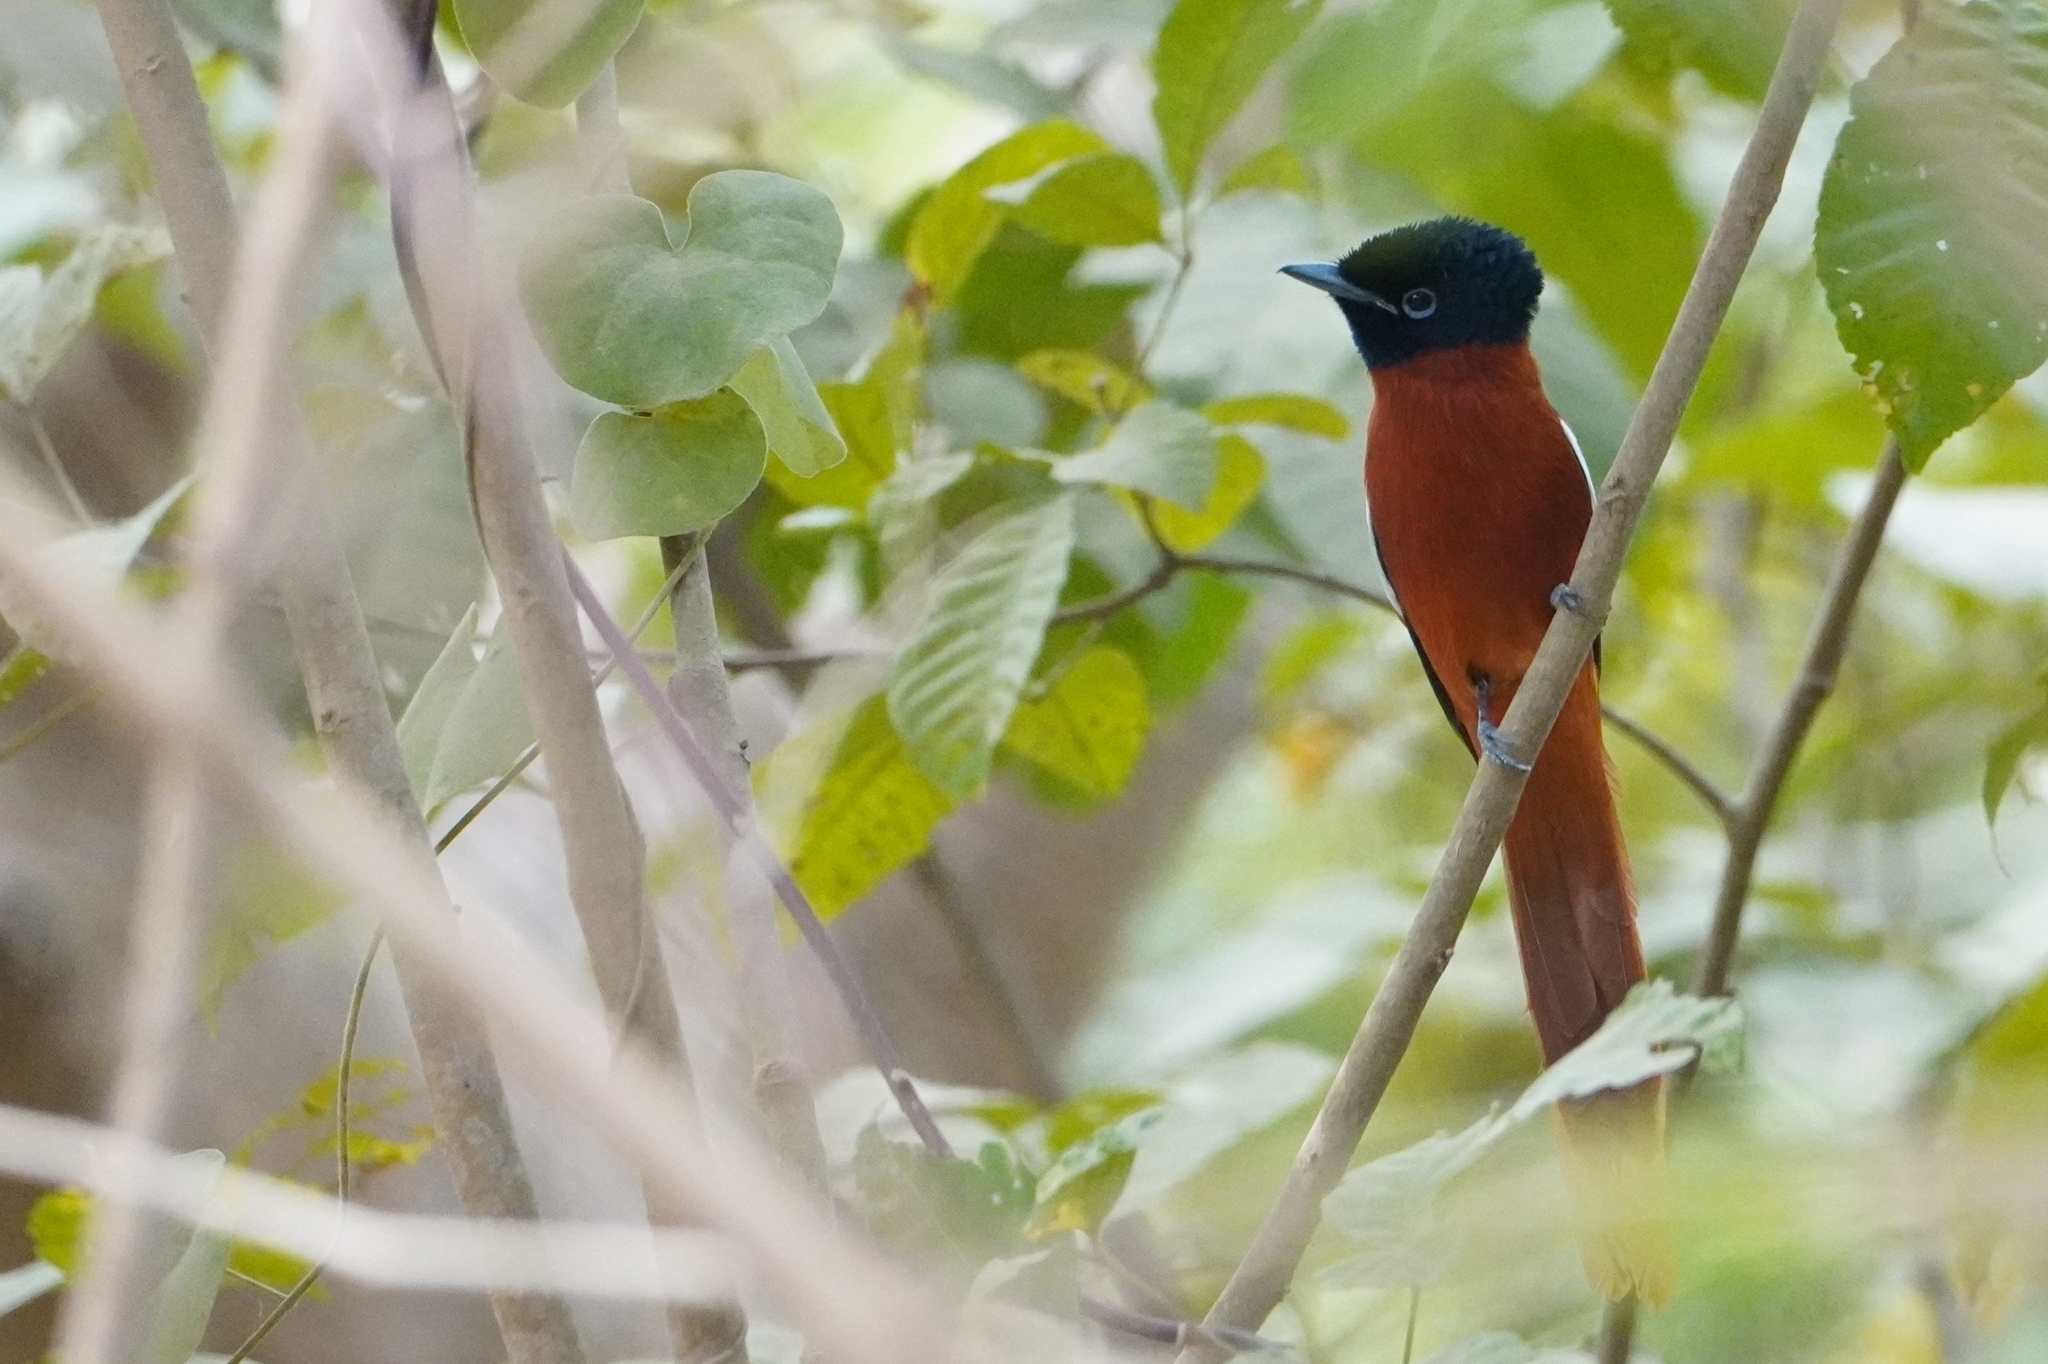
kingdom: Animalia
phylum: Chordata
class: Aves
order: Passeriformes
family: Monarchidae
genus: Terpsiphone
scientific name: Terpsiphone rufiventer
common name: Red-bellied paradise flycatcher
